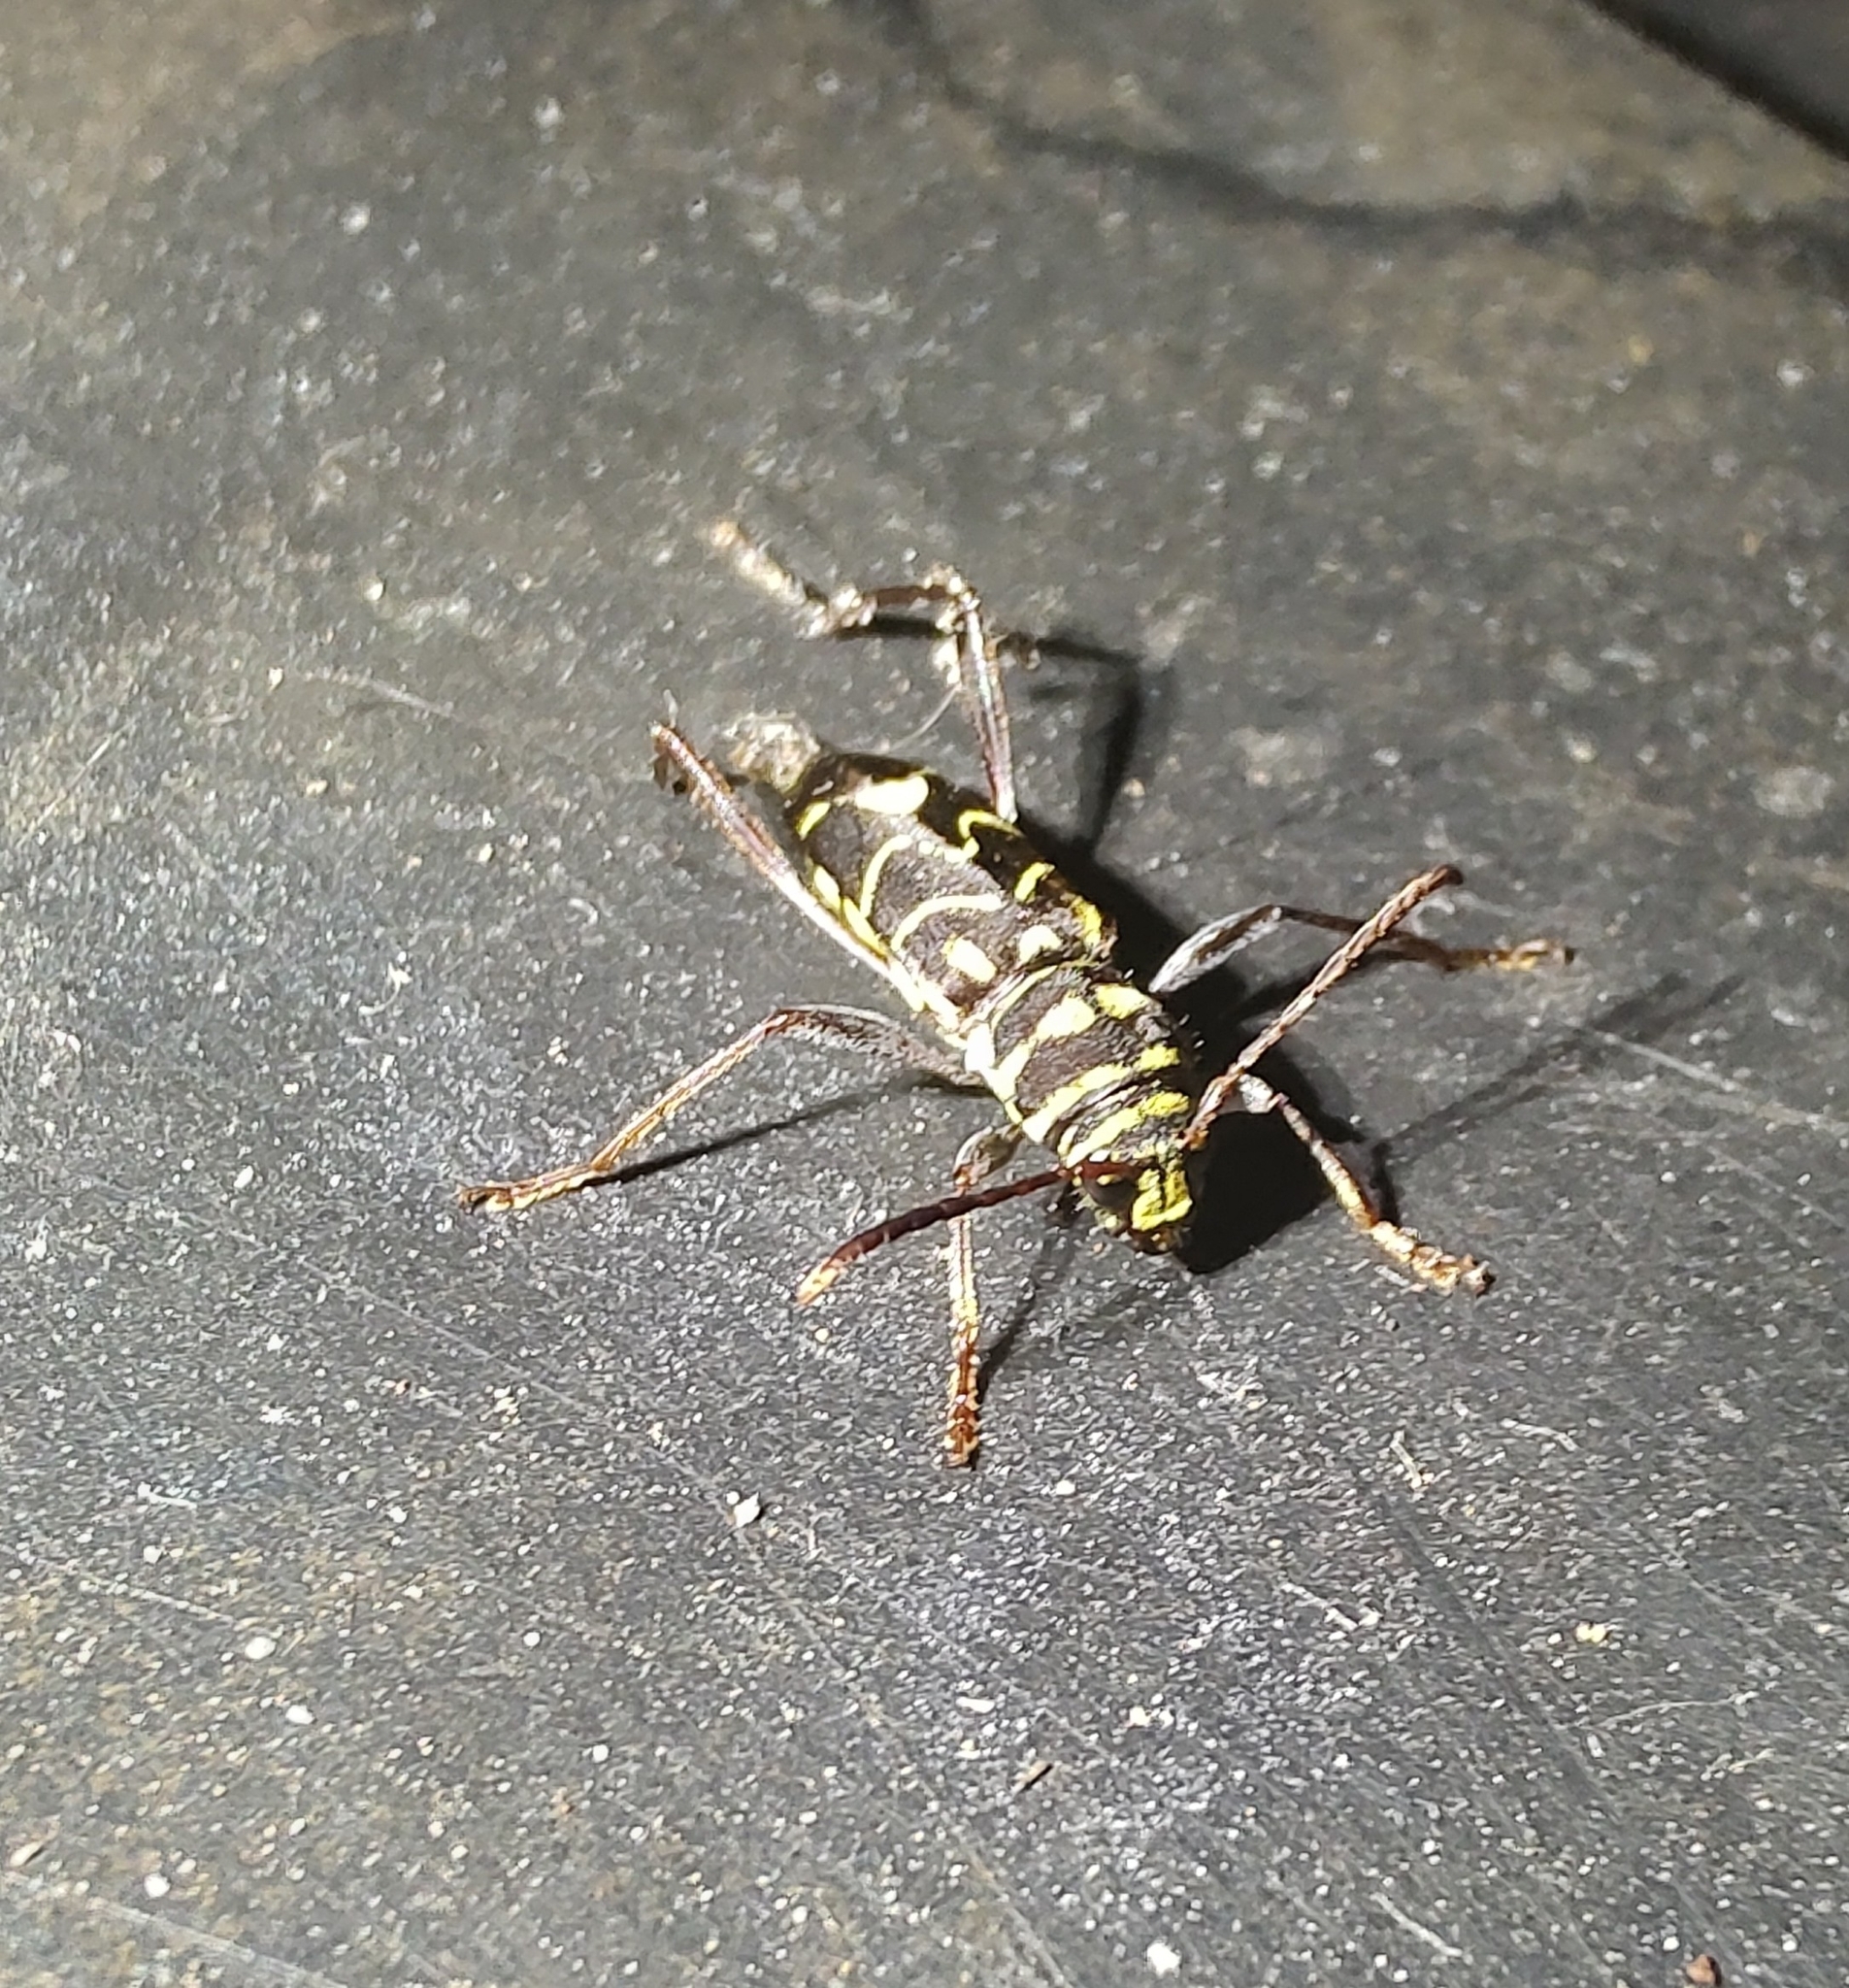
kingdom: Animalia
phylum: Arthropoda
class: Insecta
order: Coleoptera
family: Cerambycidae
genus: Cotyclytus
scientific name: Cotyclytus curvatus
